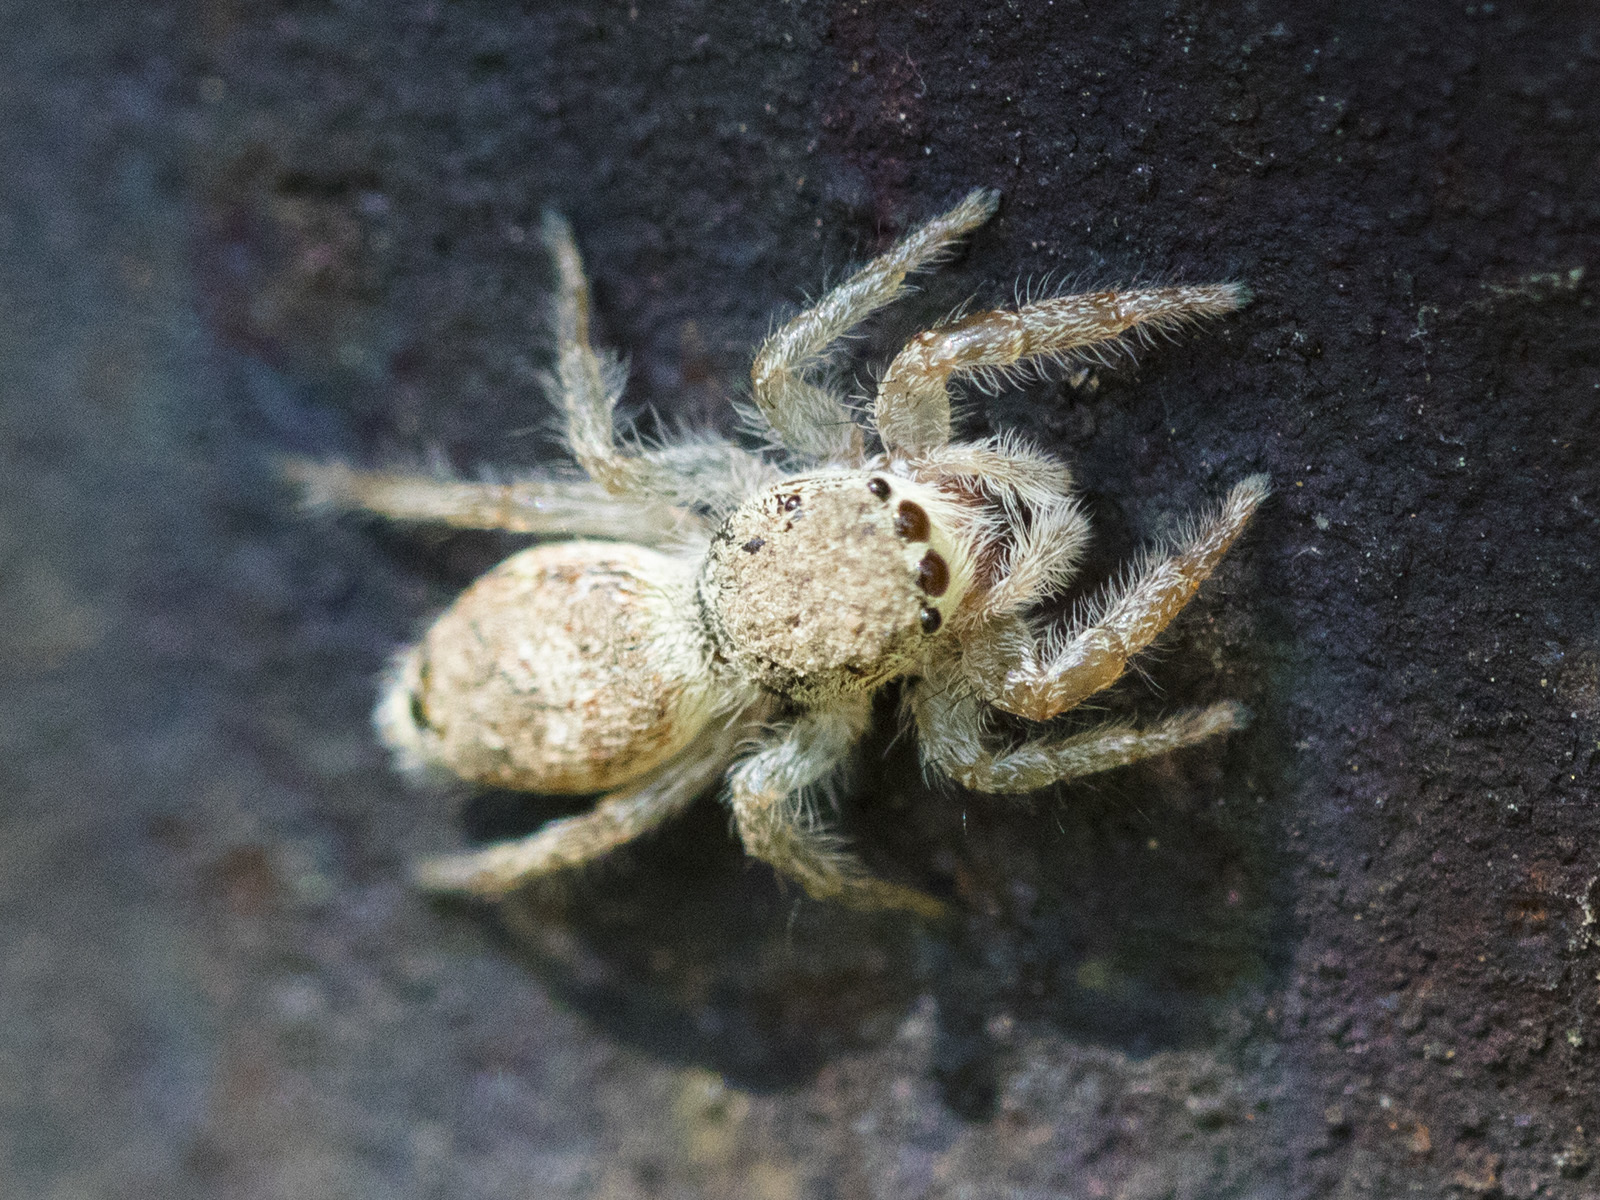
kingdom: Animalia
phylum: Arthropoda
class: Arachnida
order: Araneae
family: Salticidae
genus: Rudakius
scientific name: Rudakius cinctus
